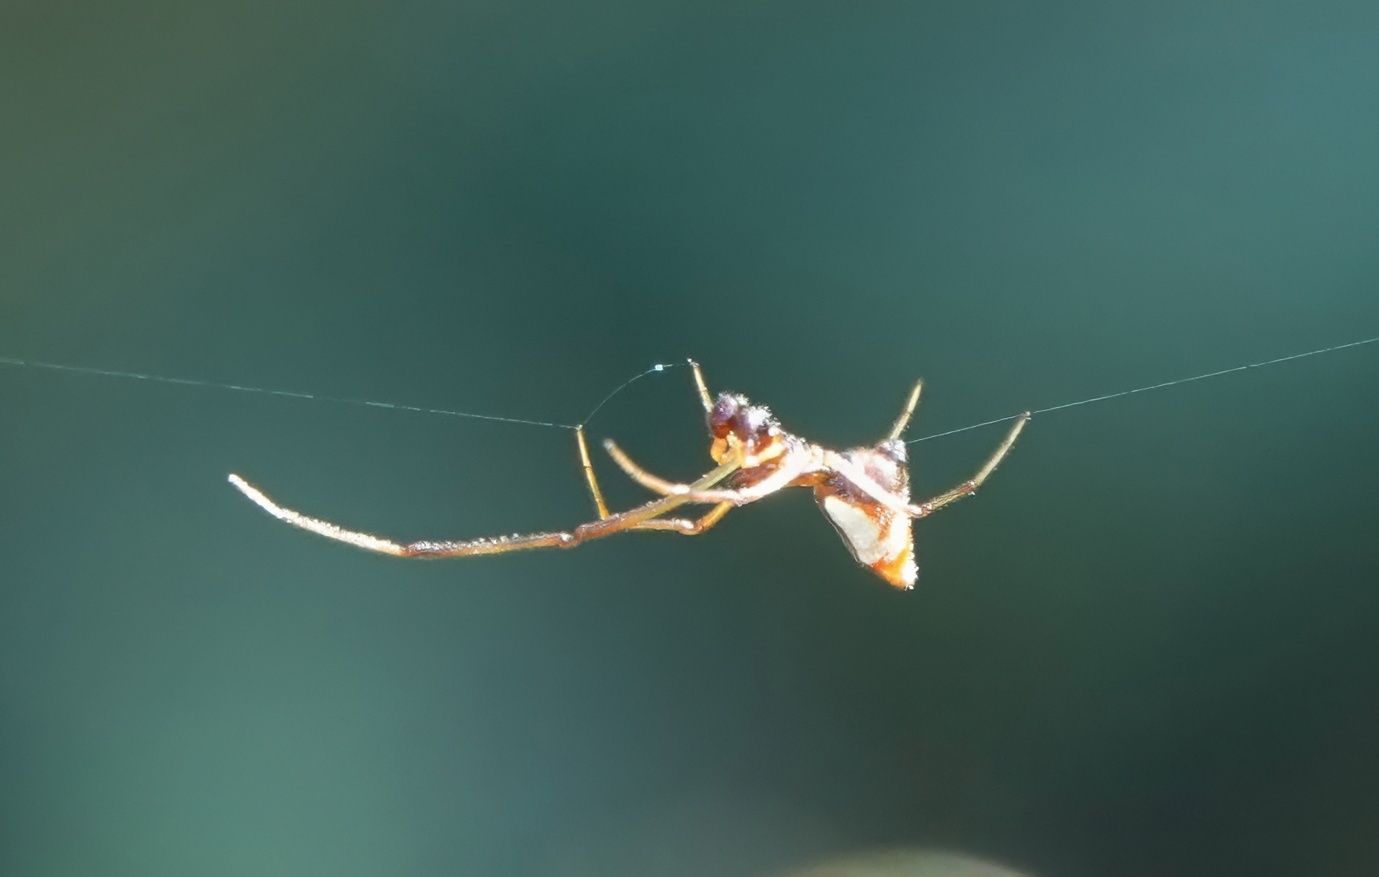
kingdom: Animalia
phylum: Arthropoda
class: Arachnida
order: Araneae
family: Theridiidae
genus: Argyrodes
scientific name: Argyrodes elevatus
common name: Cobweb spiders
